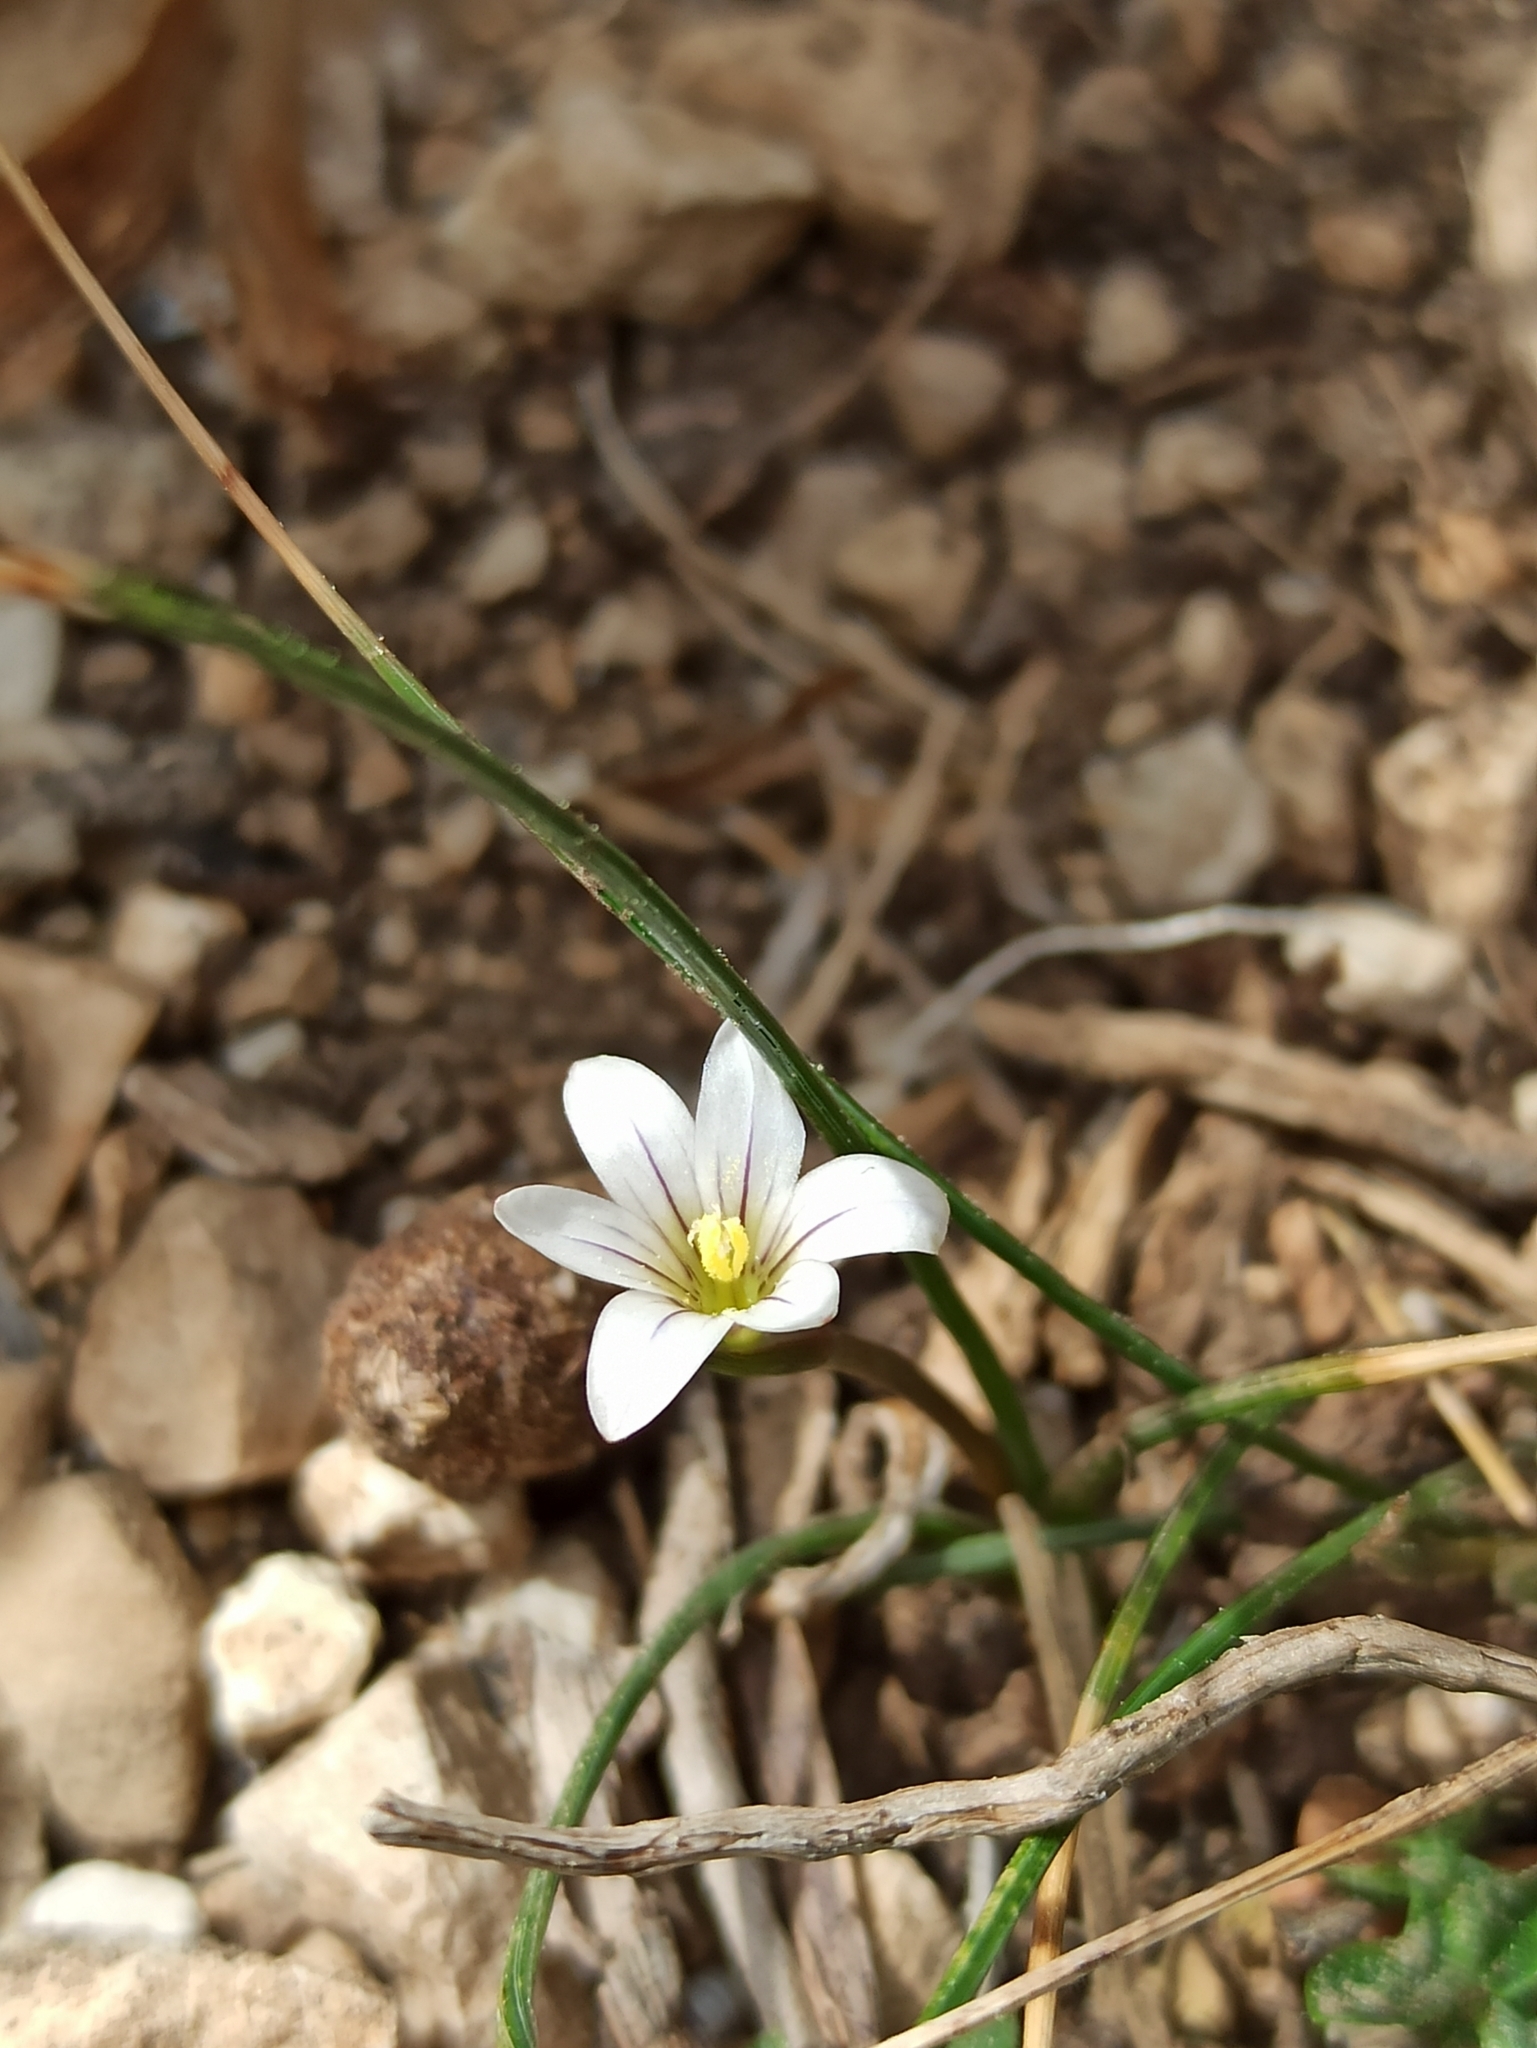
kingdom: Plantae
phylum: Tracheophyta
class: Liliopsida
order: Asparagales
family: Iridaceae
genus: Romulea
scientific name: Romulea columnae
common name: Sand-crocus
